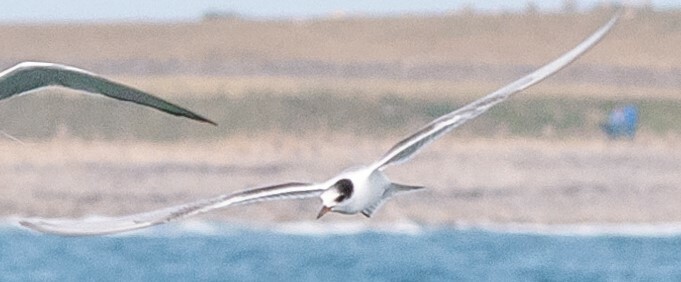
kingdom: Animalia
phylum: Chordata
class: Aves
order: Charadriiformes
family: Laridae
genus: Sterna
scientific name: Sterna hirundo
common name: Common tern
